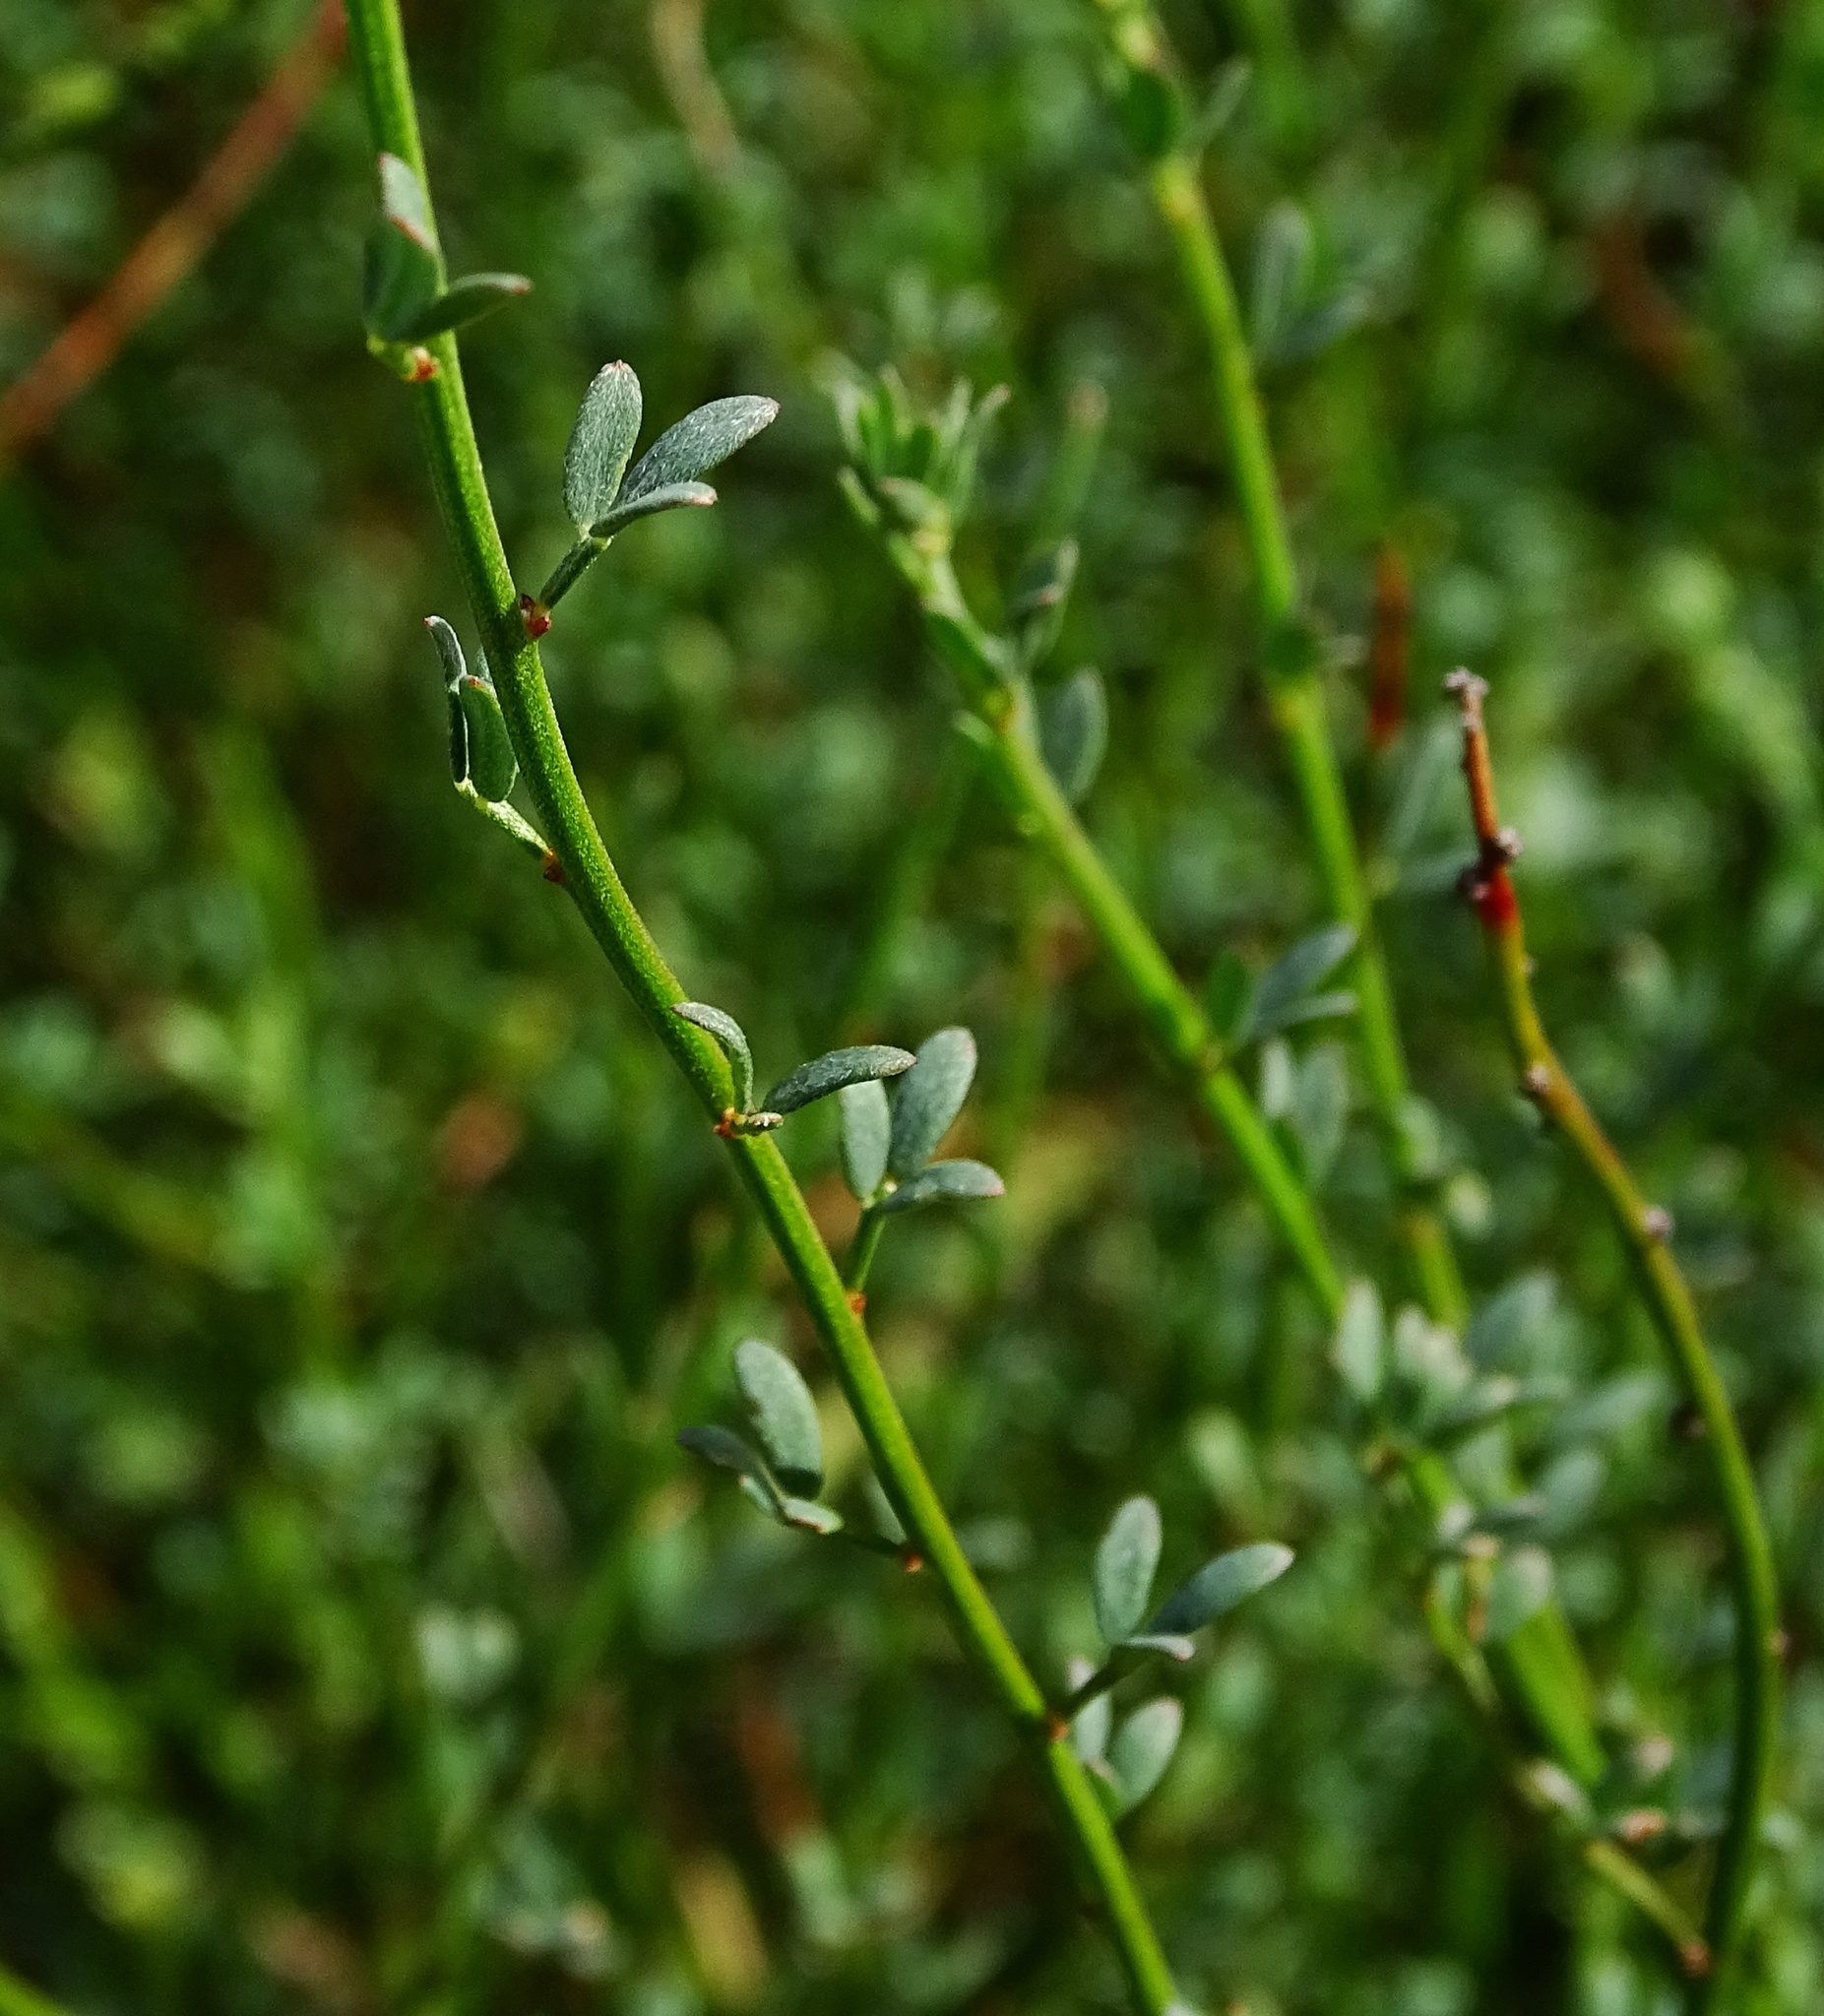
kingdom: Plantae
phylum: Tracheophyta
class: Magnoliopsida
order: Fabales
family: Fabaceae
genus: Acmispon
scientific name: Acmispon glaber
